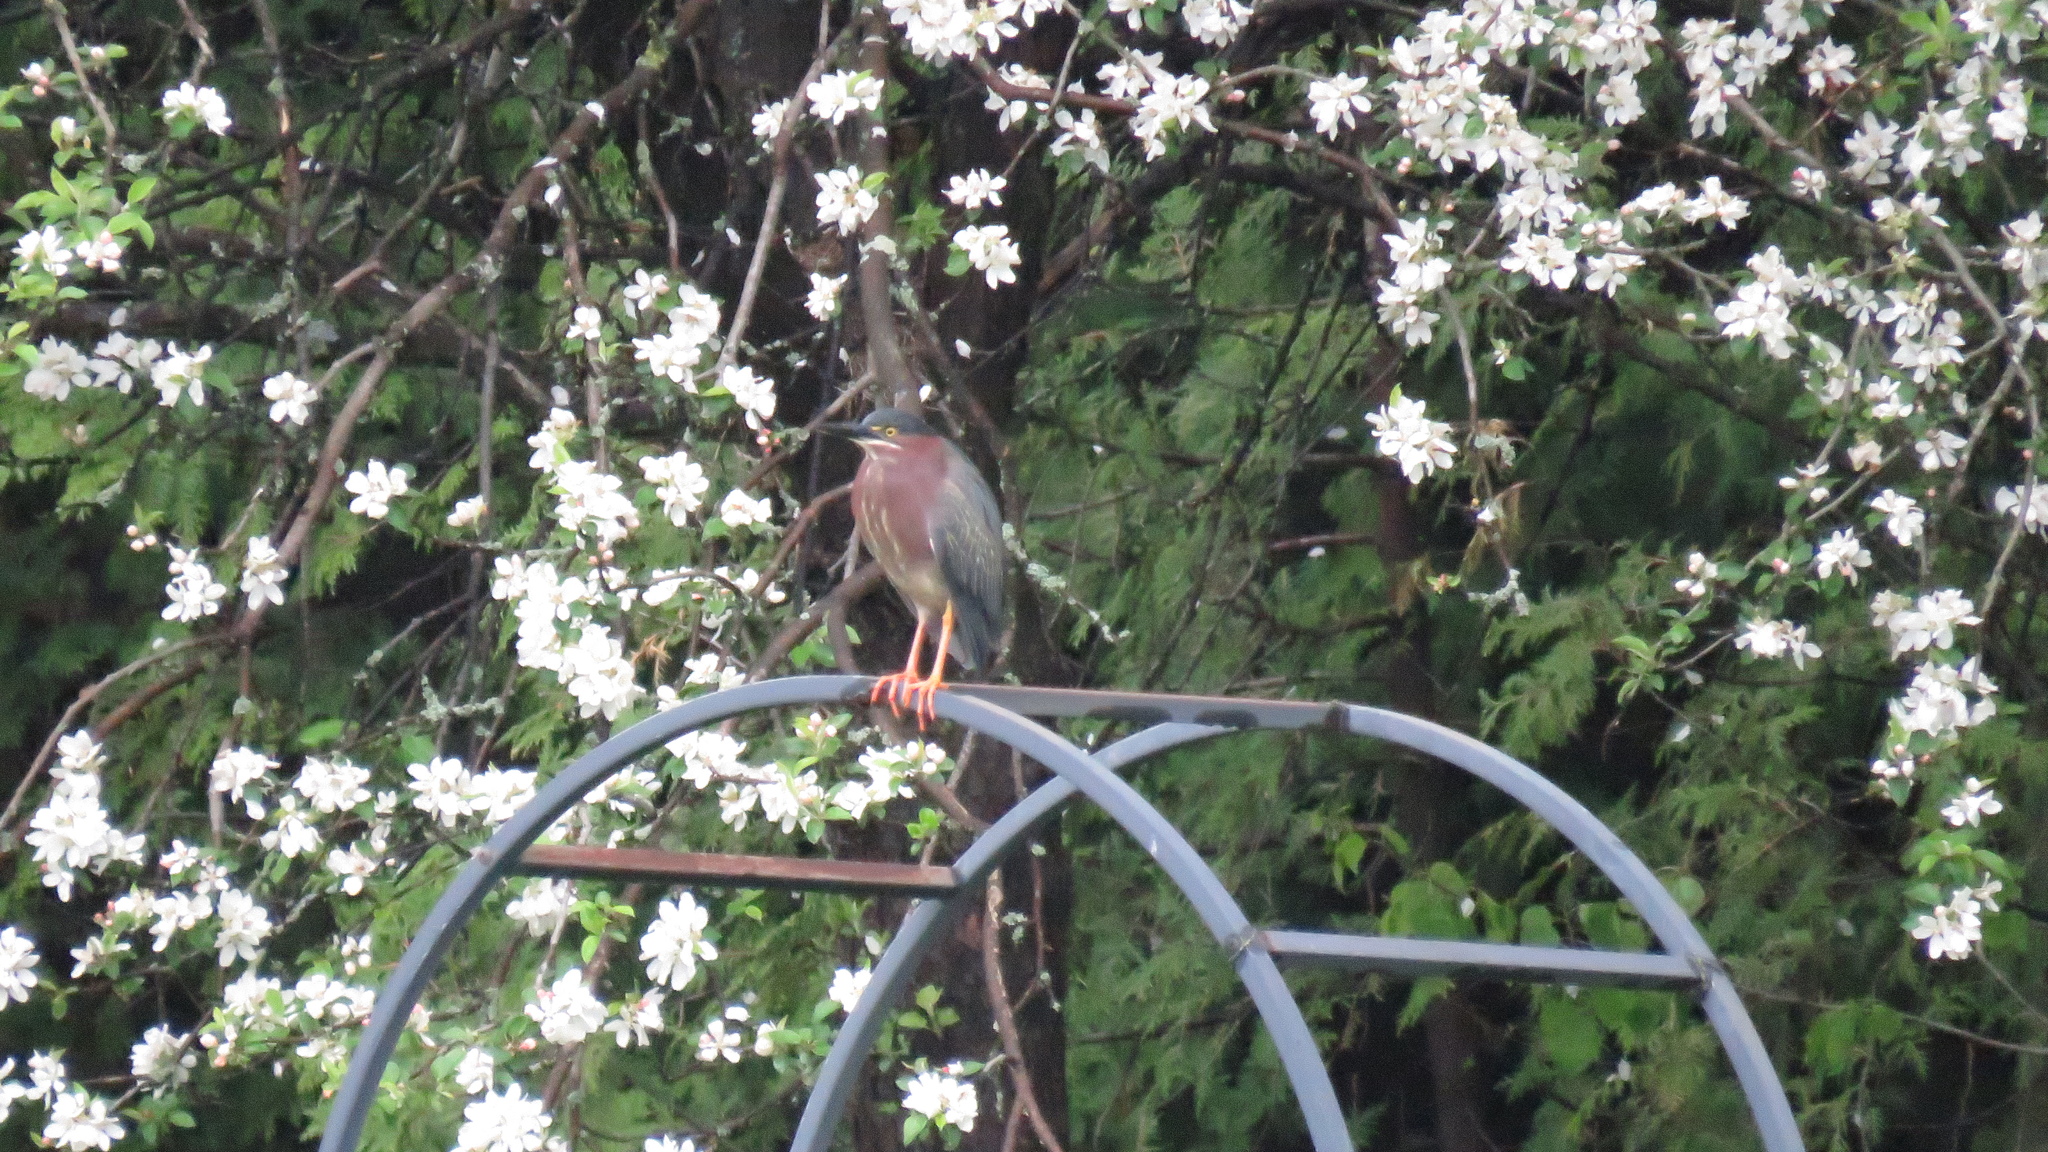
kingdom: Animalia
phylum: Chordata
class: Aves
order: Pelecaniformes
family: Ardeidae
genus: Butorides
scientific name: Butorides virescens
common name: Green heron
